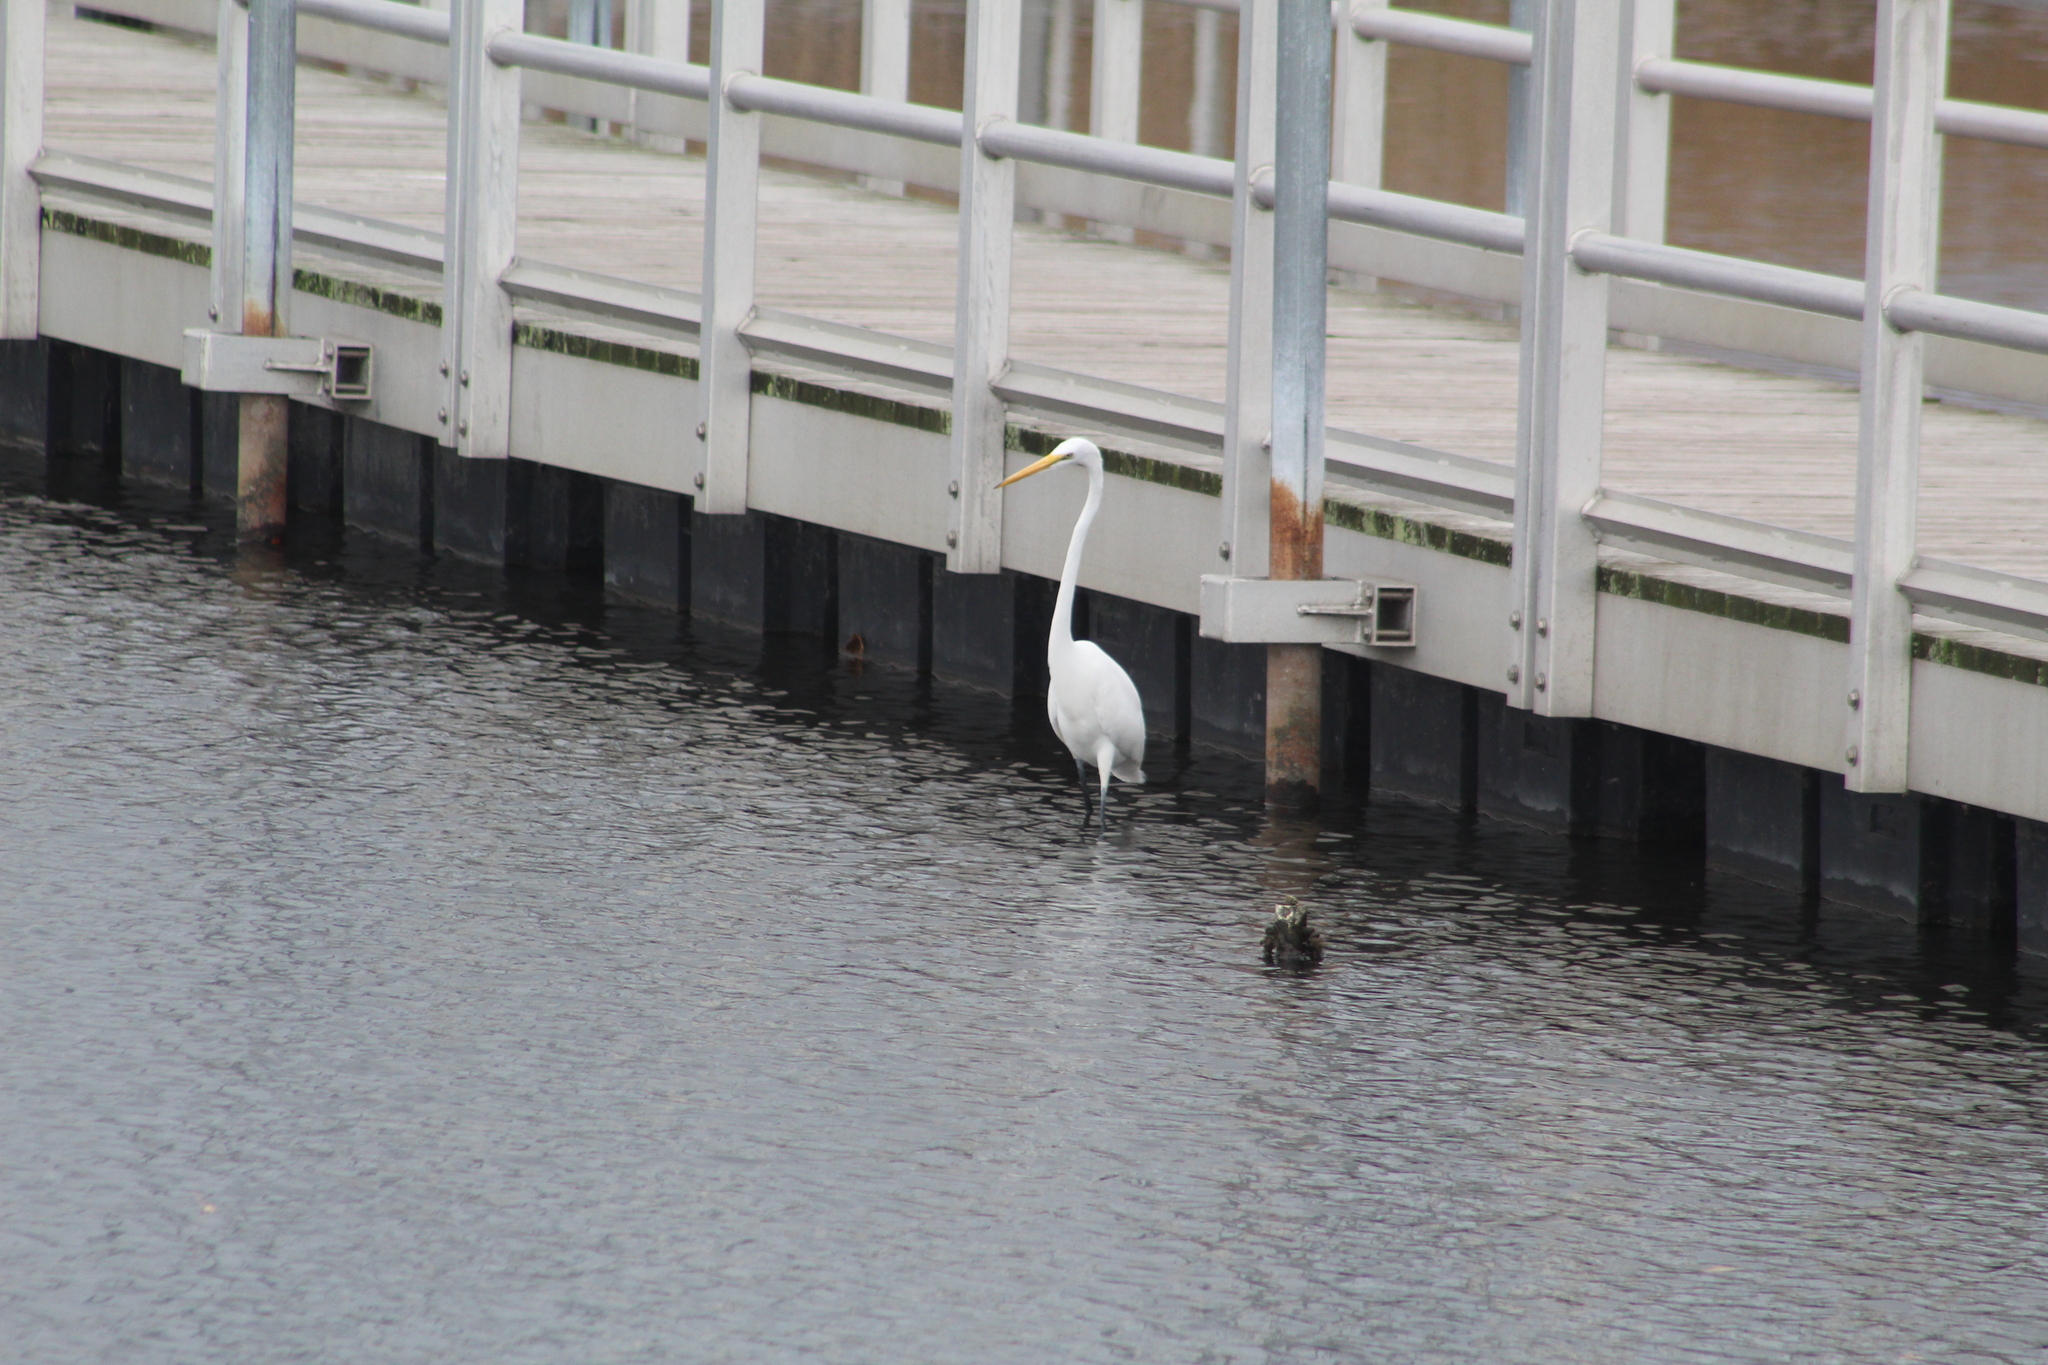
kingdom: Animalia
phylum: Chordata
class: Aves
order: Pelecaniformes
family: Ardeidae
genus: Ardea
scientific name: Ardea alba
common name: Great egret
